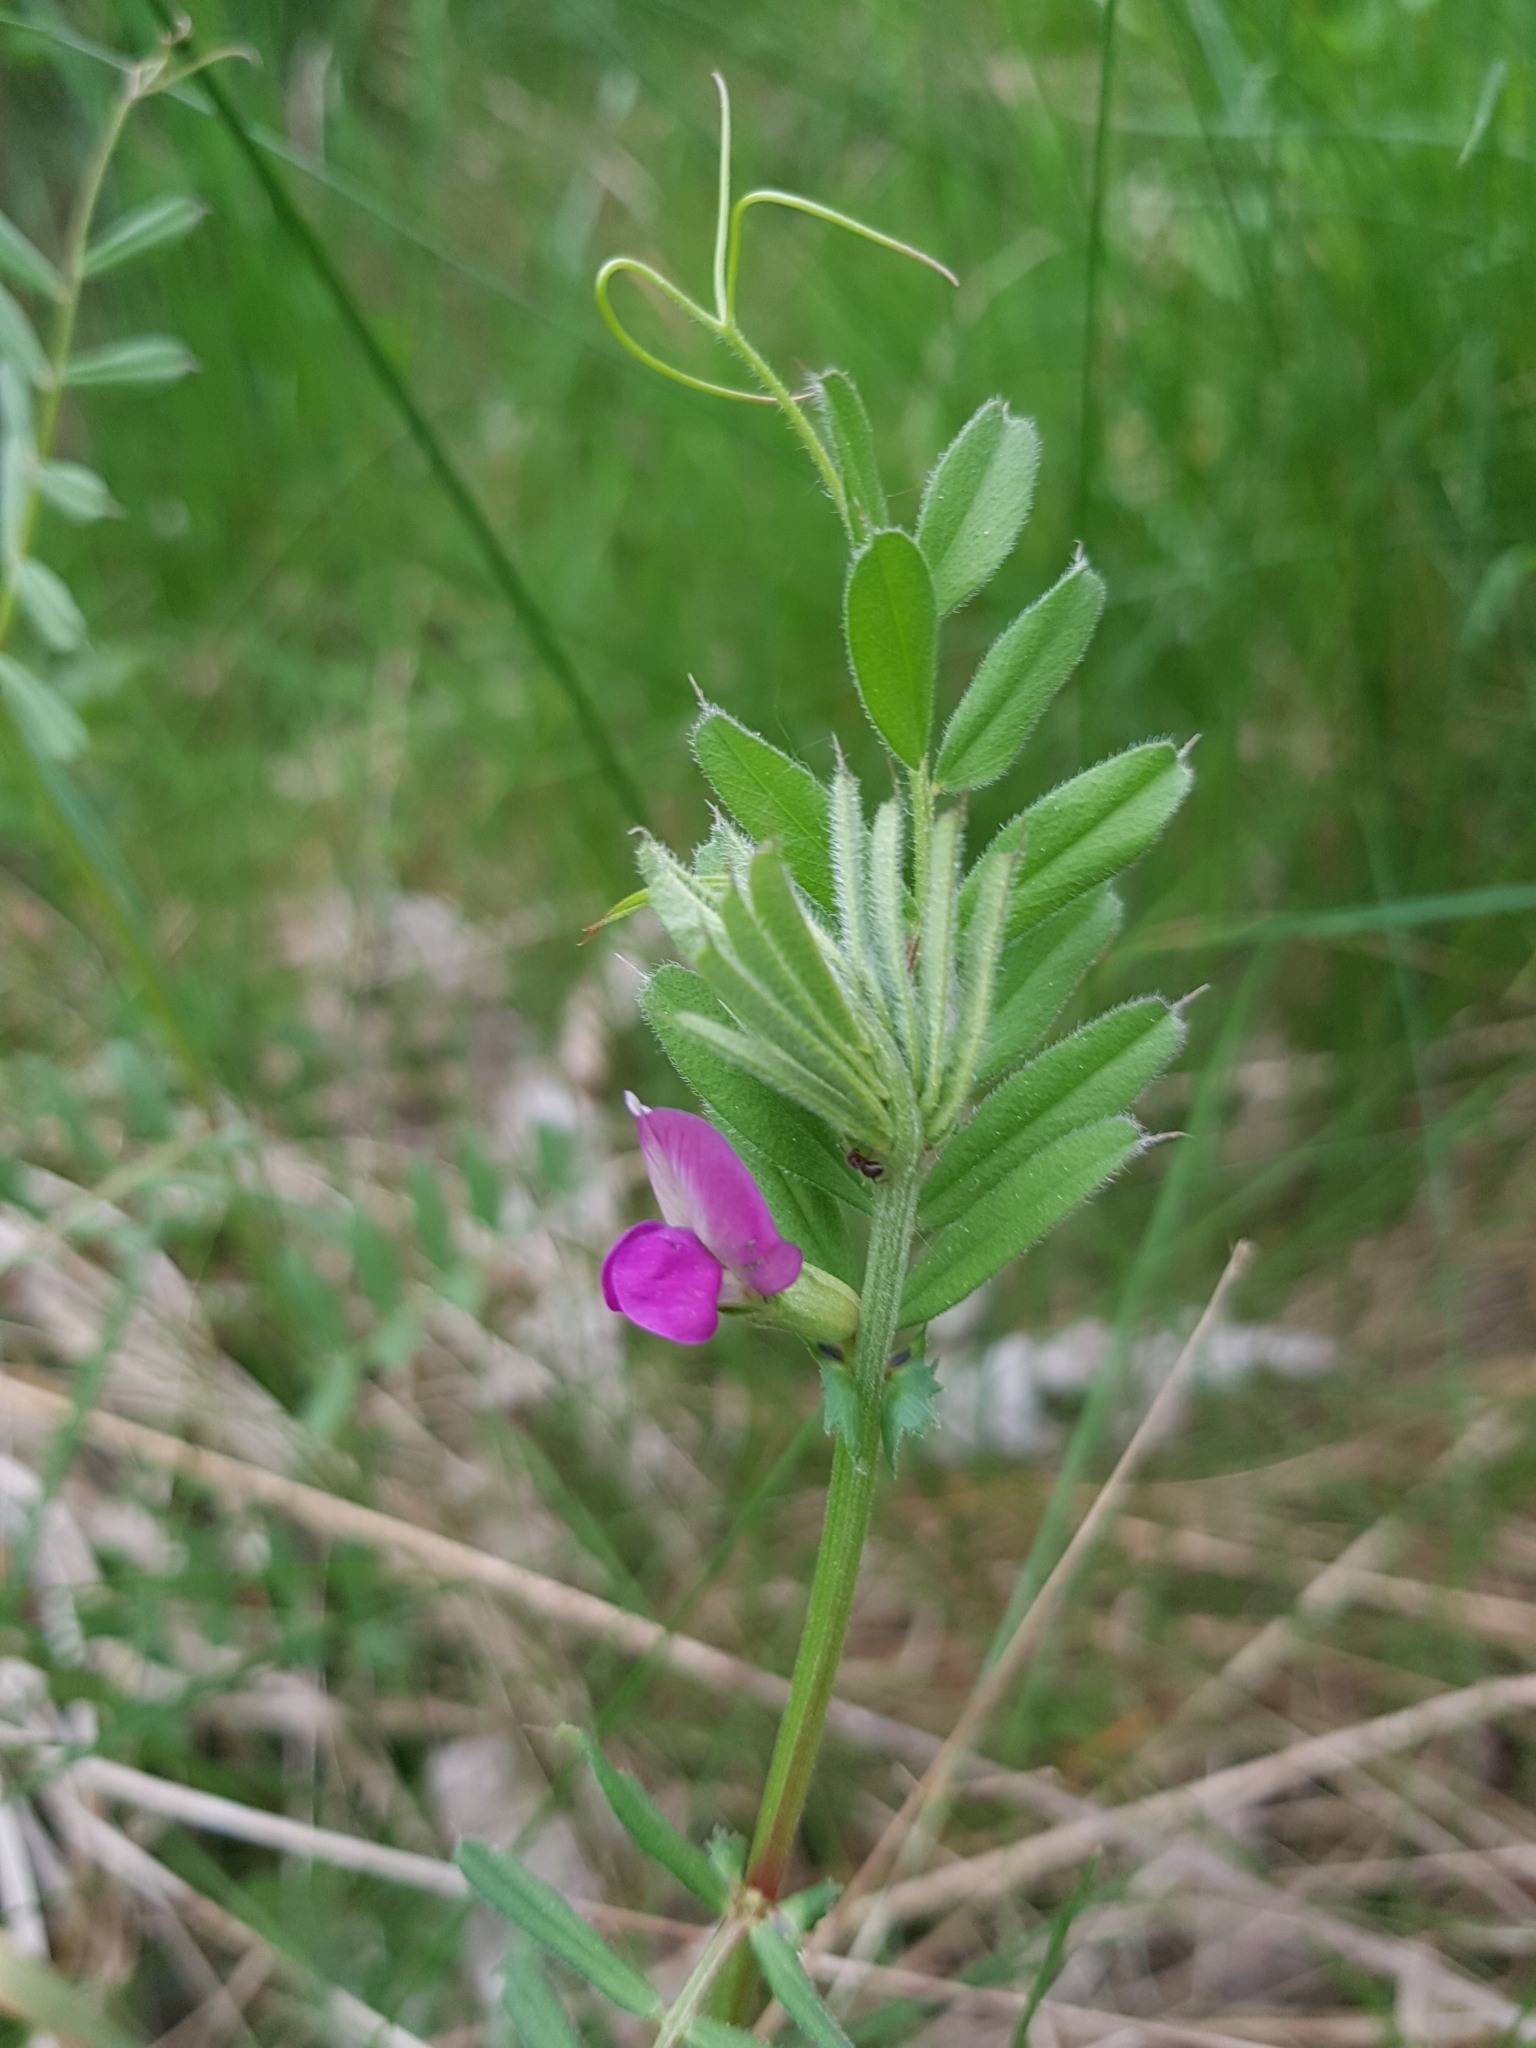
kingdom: Plantae
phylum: Tracheophyta
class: Magnoliopsida
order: Fabales
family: Fabaceae
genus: Vicia
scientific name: Vicia sativa
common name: Garden vetch
